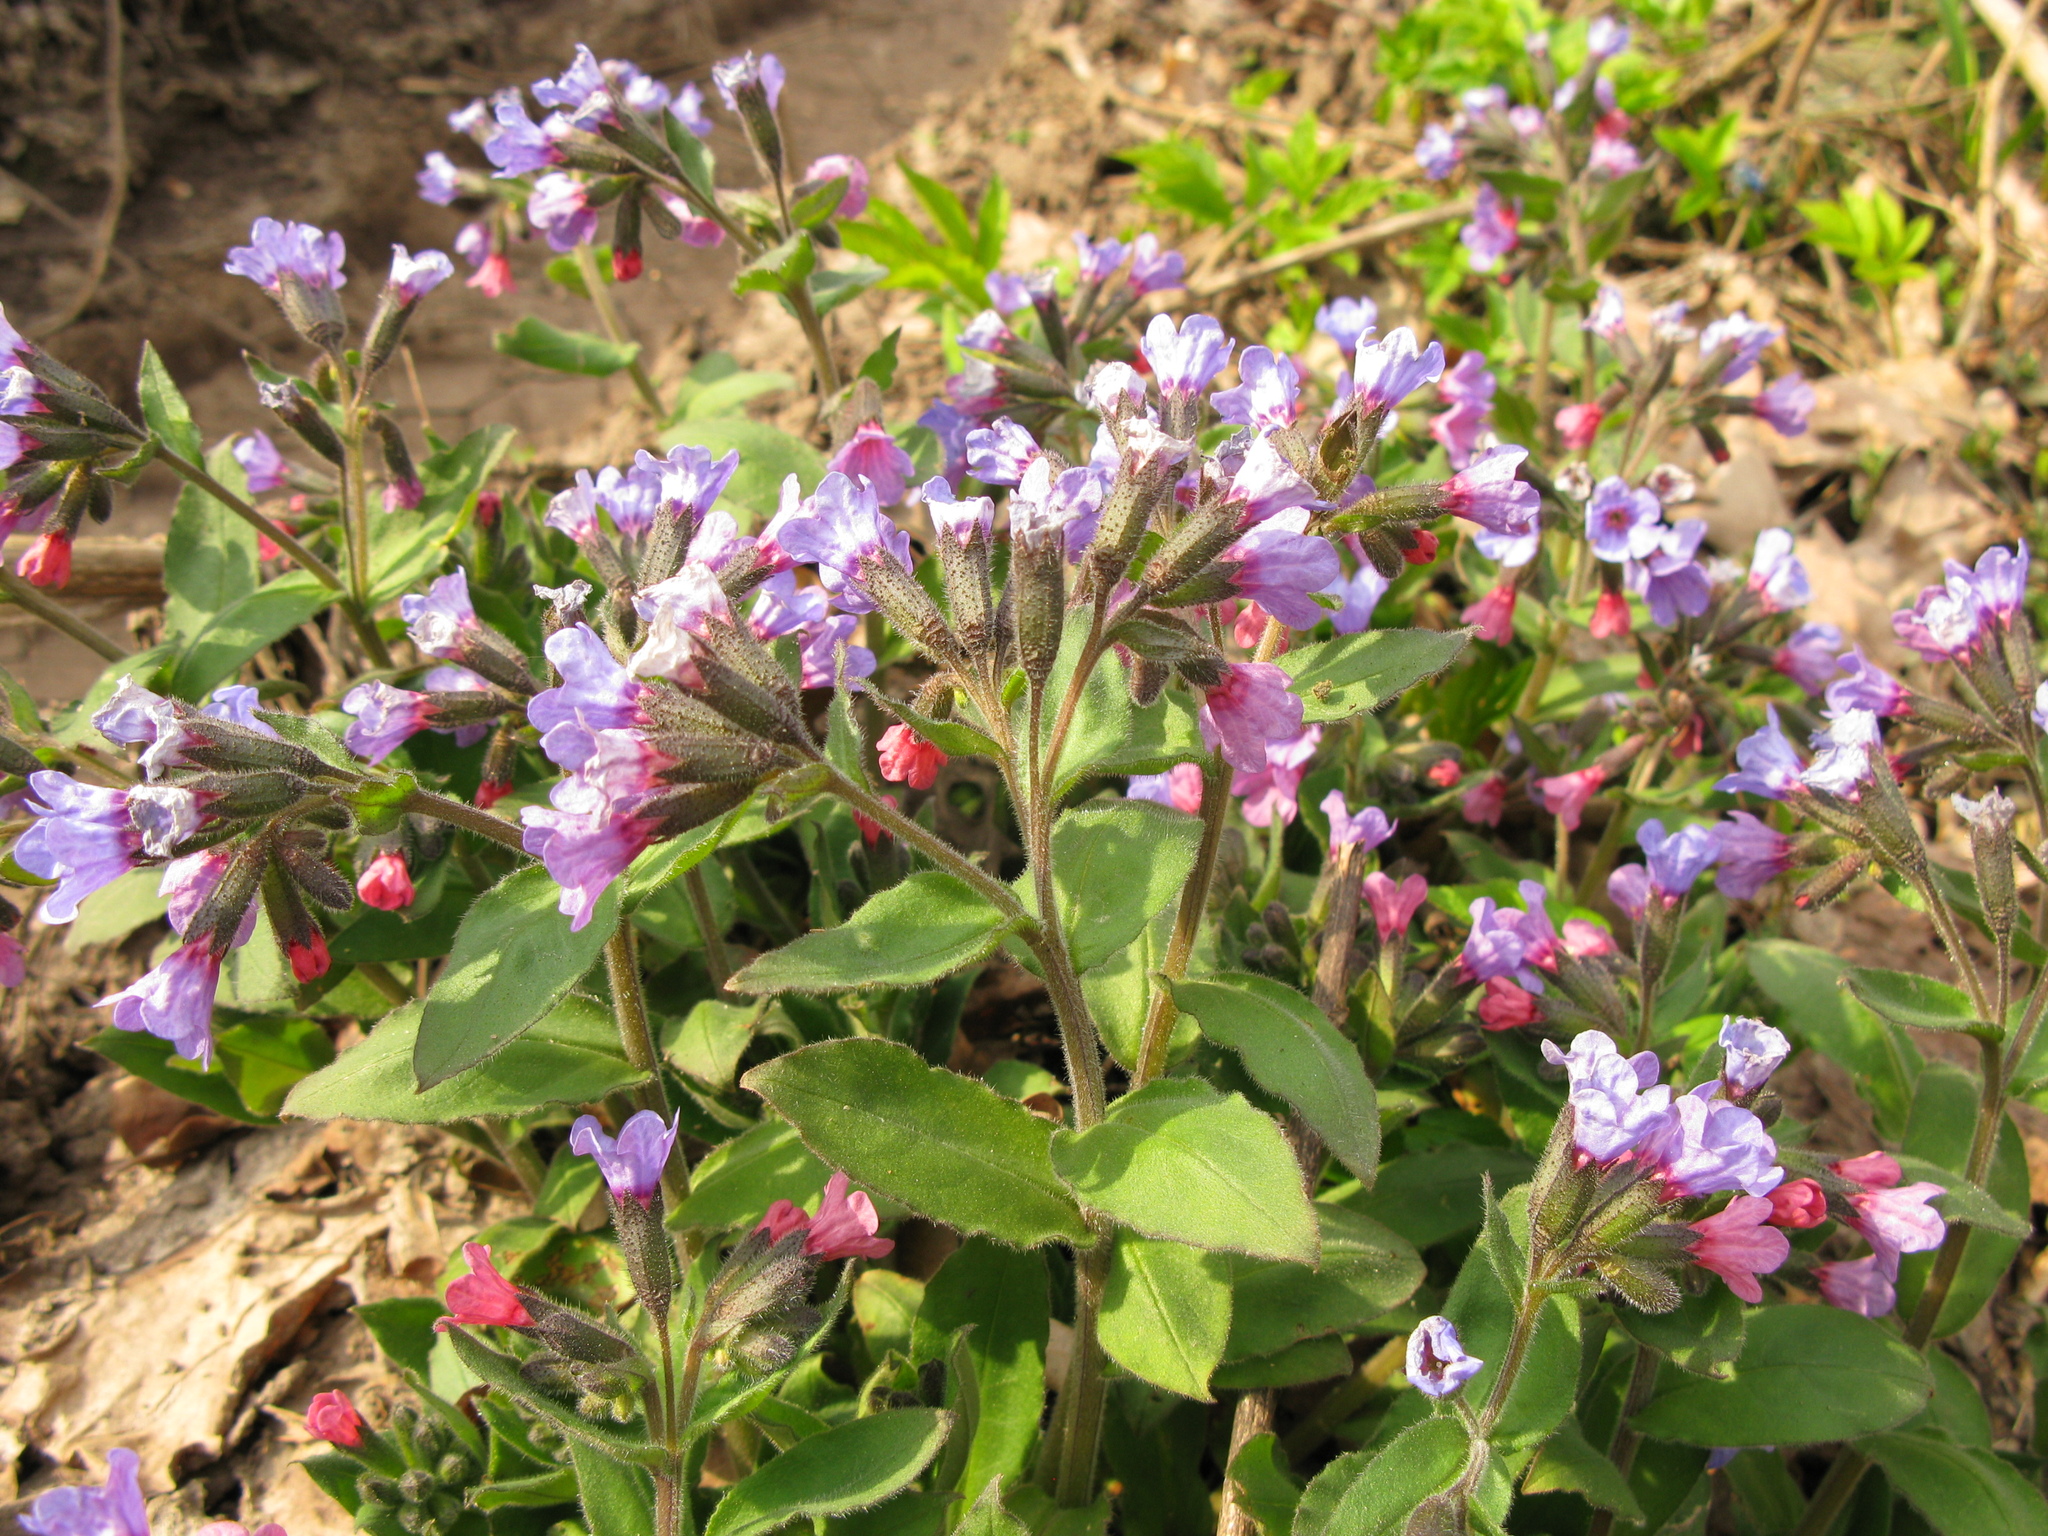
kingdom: Plantae
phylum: Tracheophyta
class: Magnoliopsida
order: Boraginales
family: Boraginaceae
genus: Pulmonaria
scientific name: Pulmonaria obscura
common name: Suffolk lungwort
